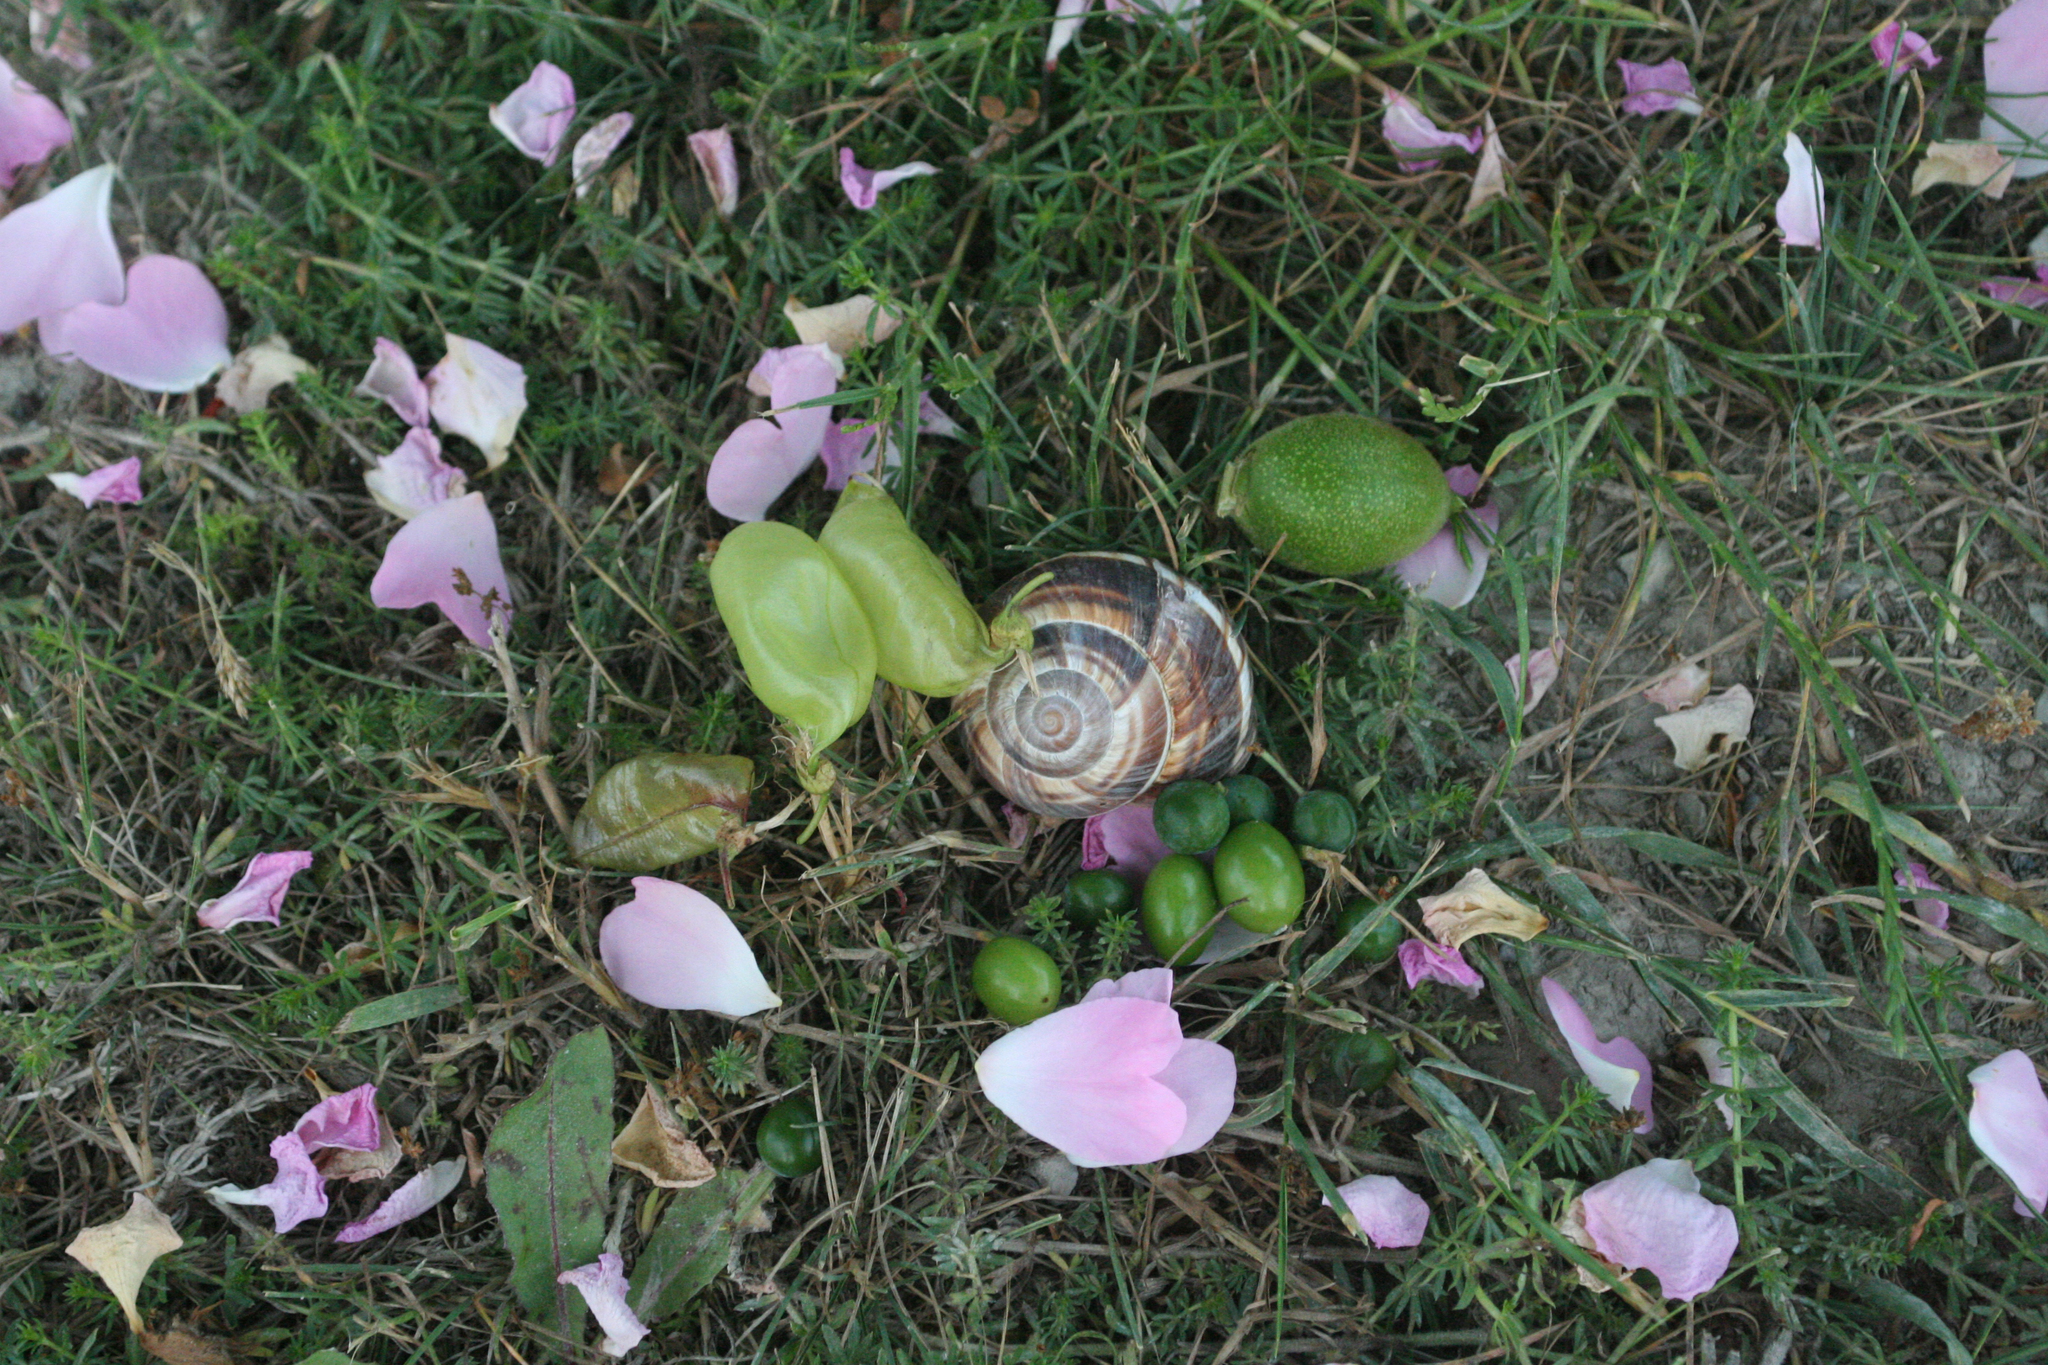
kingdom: Animalia
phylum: Mollusca
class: Gastropoda
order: Stylommatophora
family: Helicidae
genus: Helix
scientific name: Helix lucorum
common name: Turkish snail
